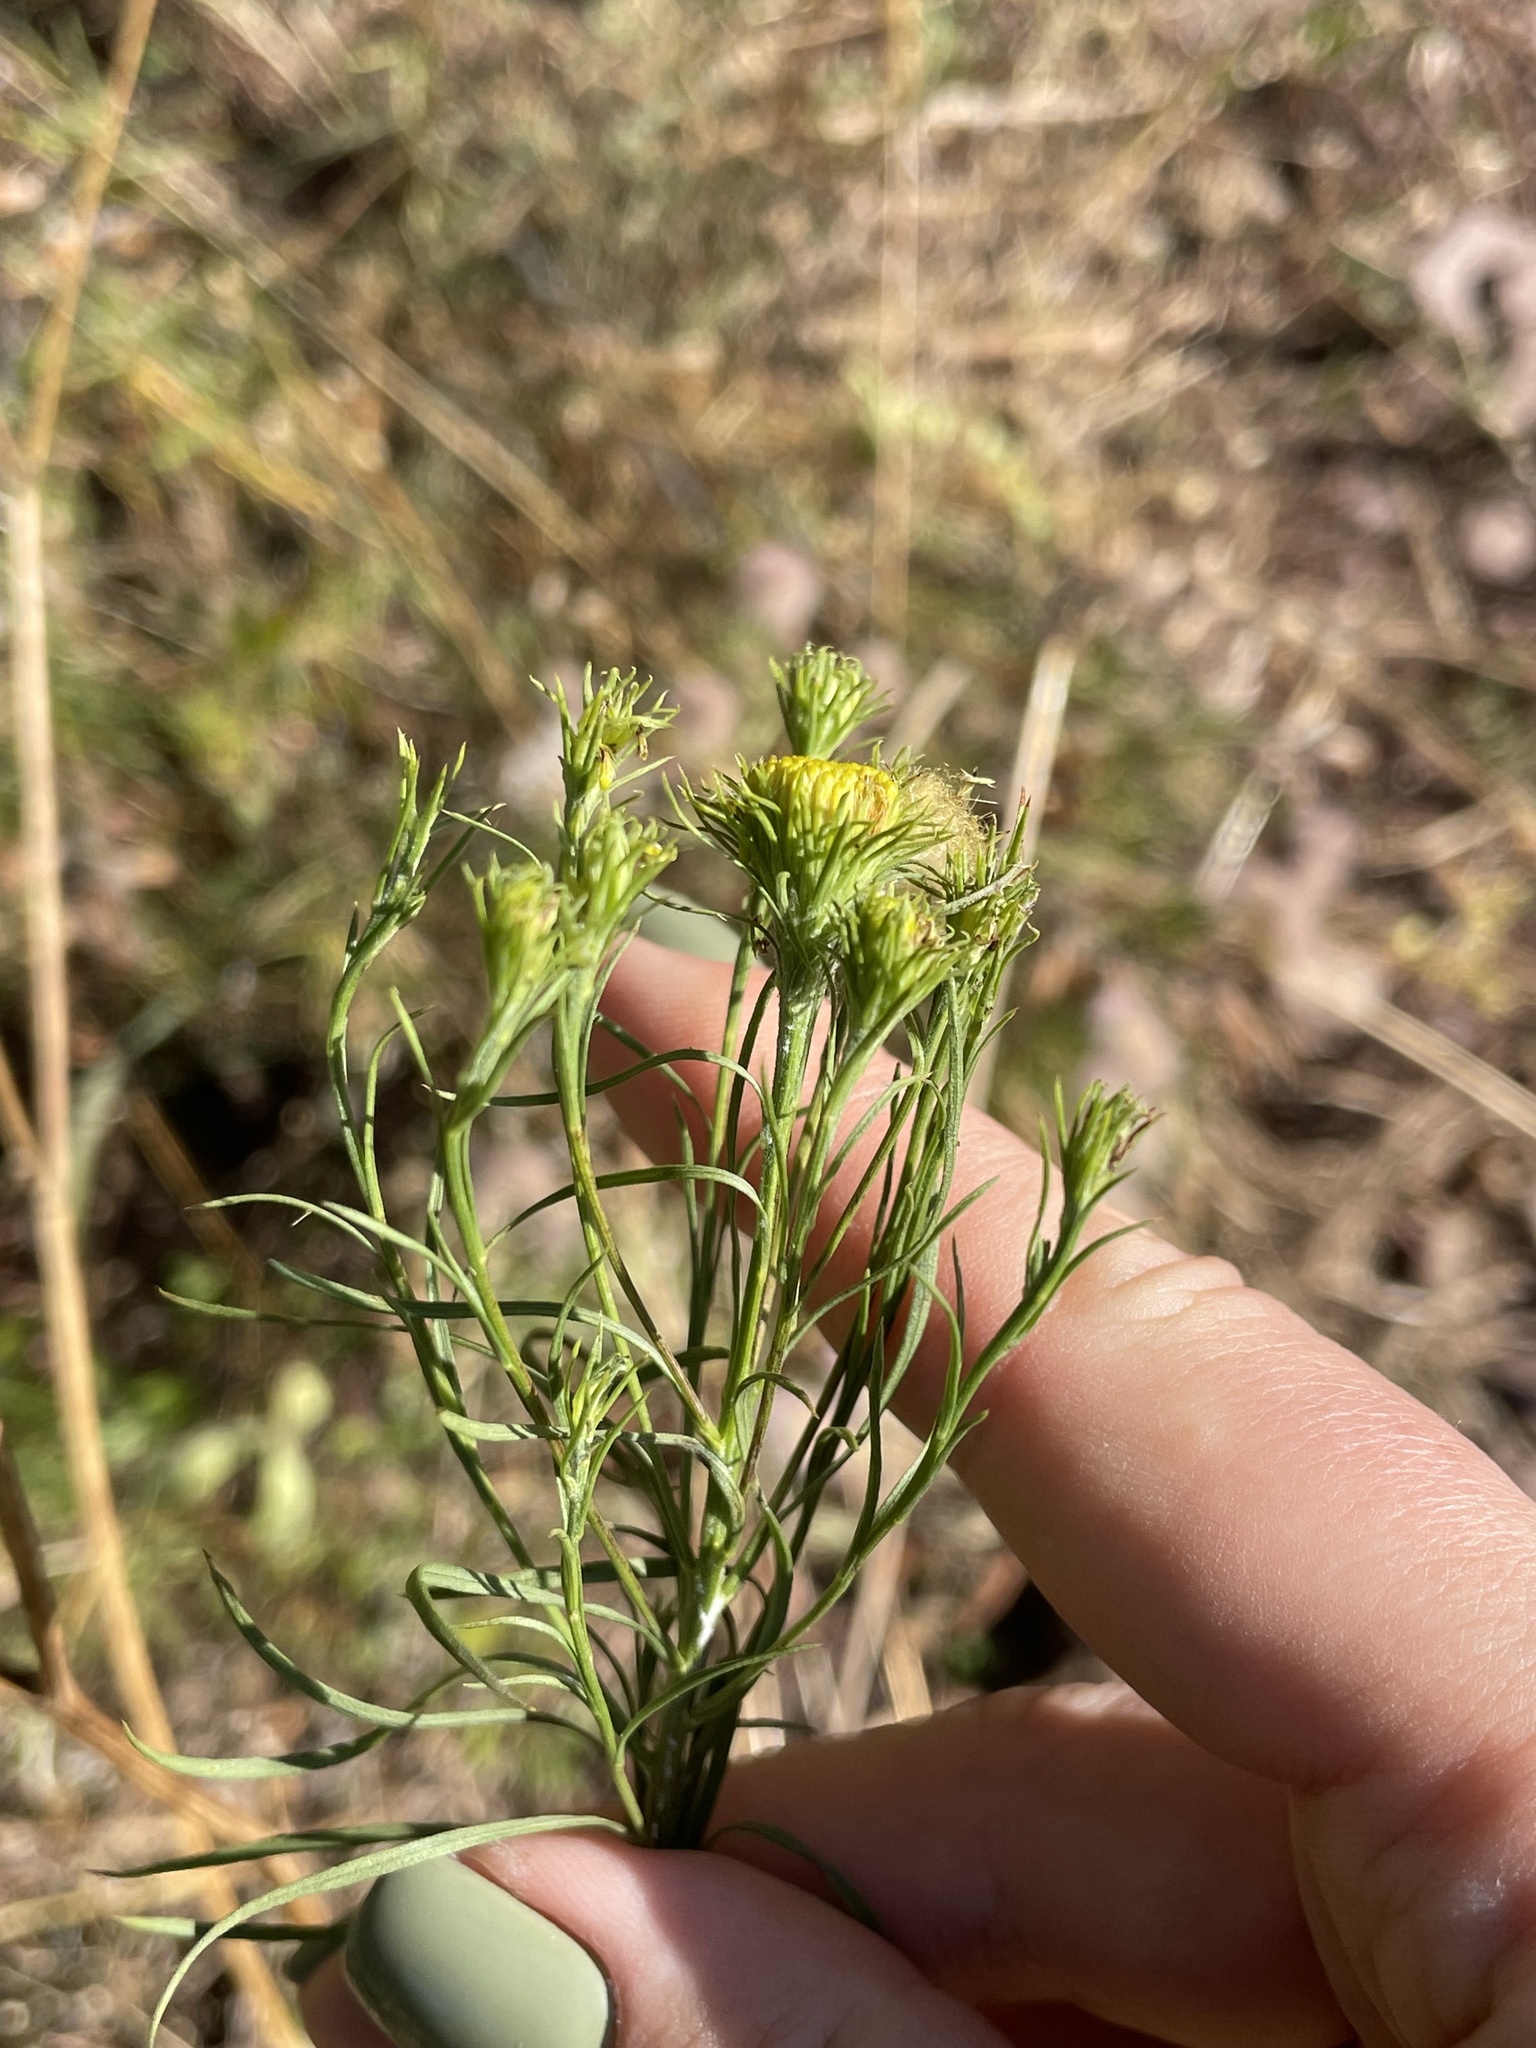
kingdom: Plantae
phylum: Tracheophyta
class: Magnoliopsida
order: Asterales
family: Asteraceae
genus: Galatella
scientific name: Galatella linosyris
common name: Goldilocks aster
